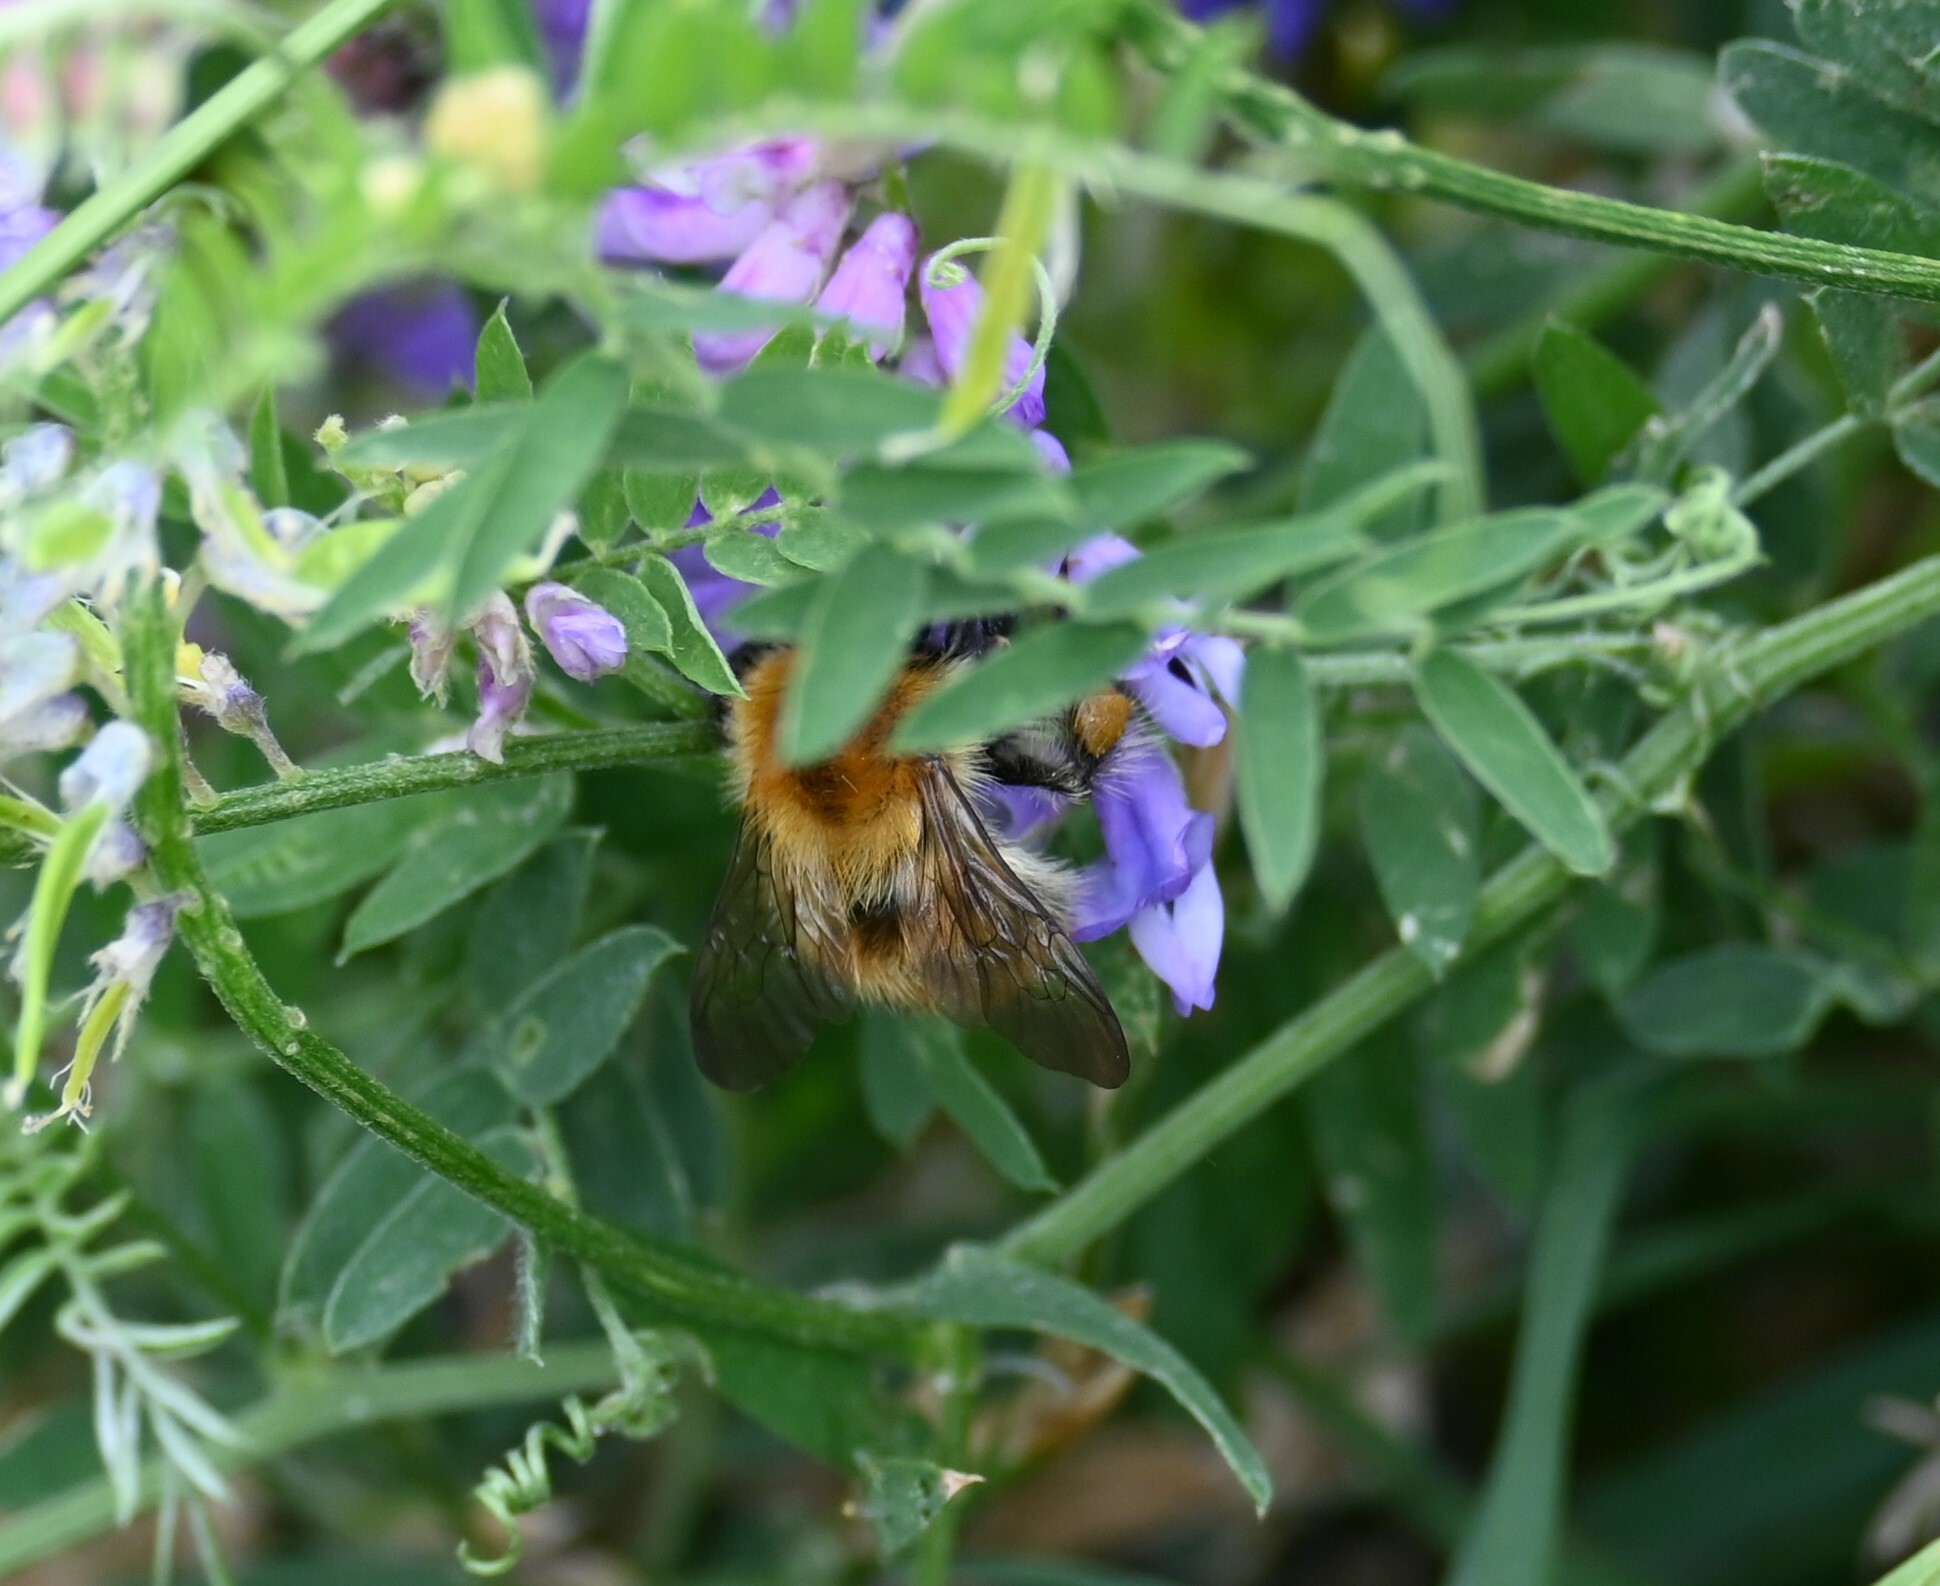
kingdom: Animalia
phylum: Arthropoda
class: Insecta
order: Hymenoptera
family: Apidae
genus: Bombus
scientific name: Bombus pascuorum
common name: Common carder bee
